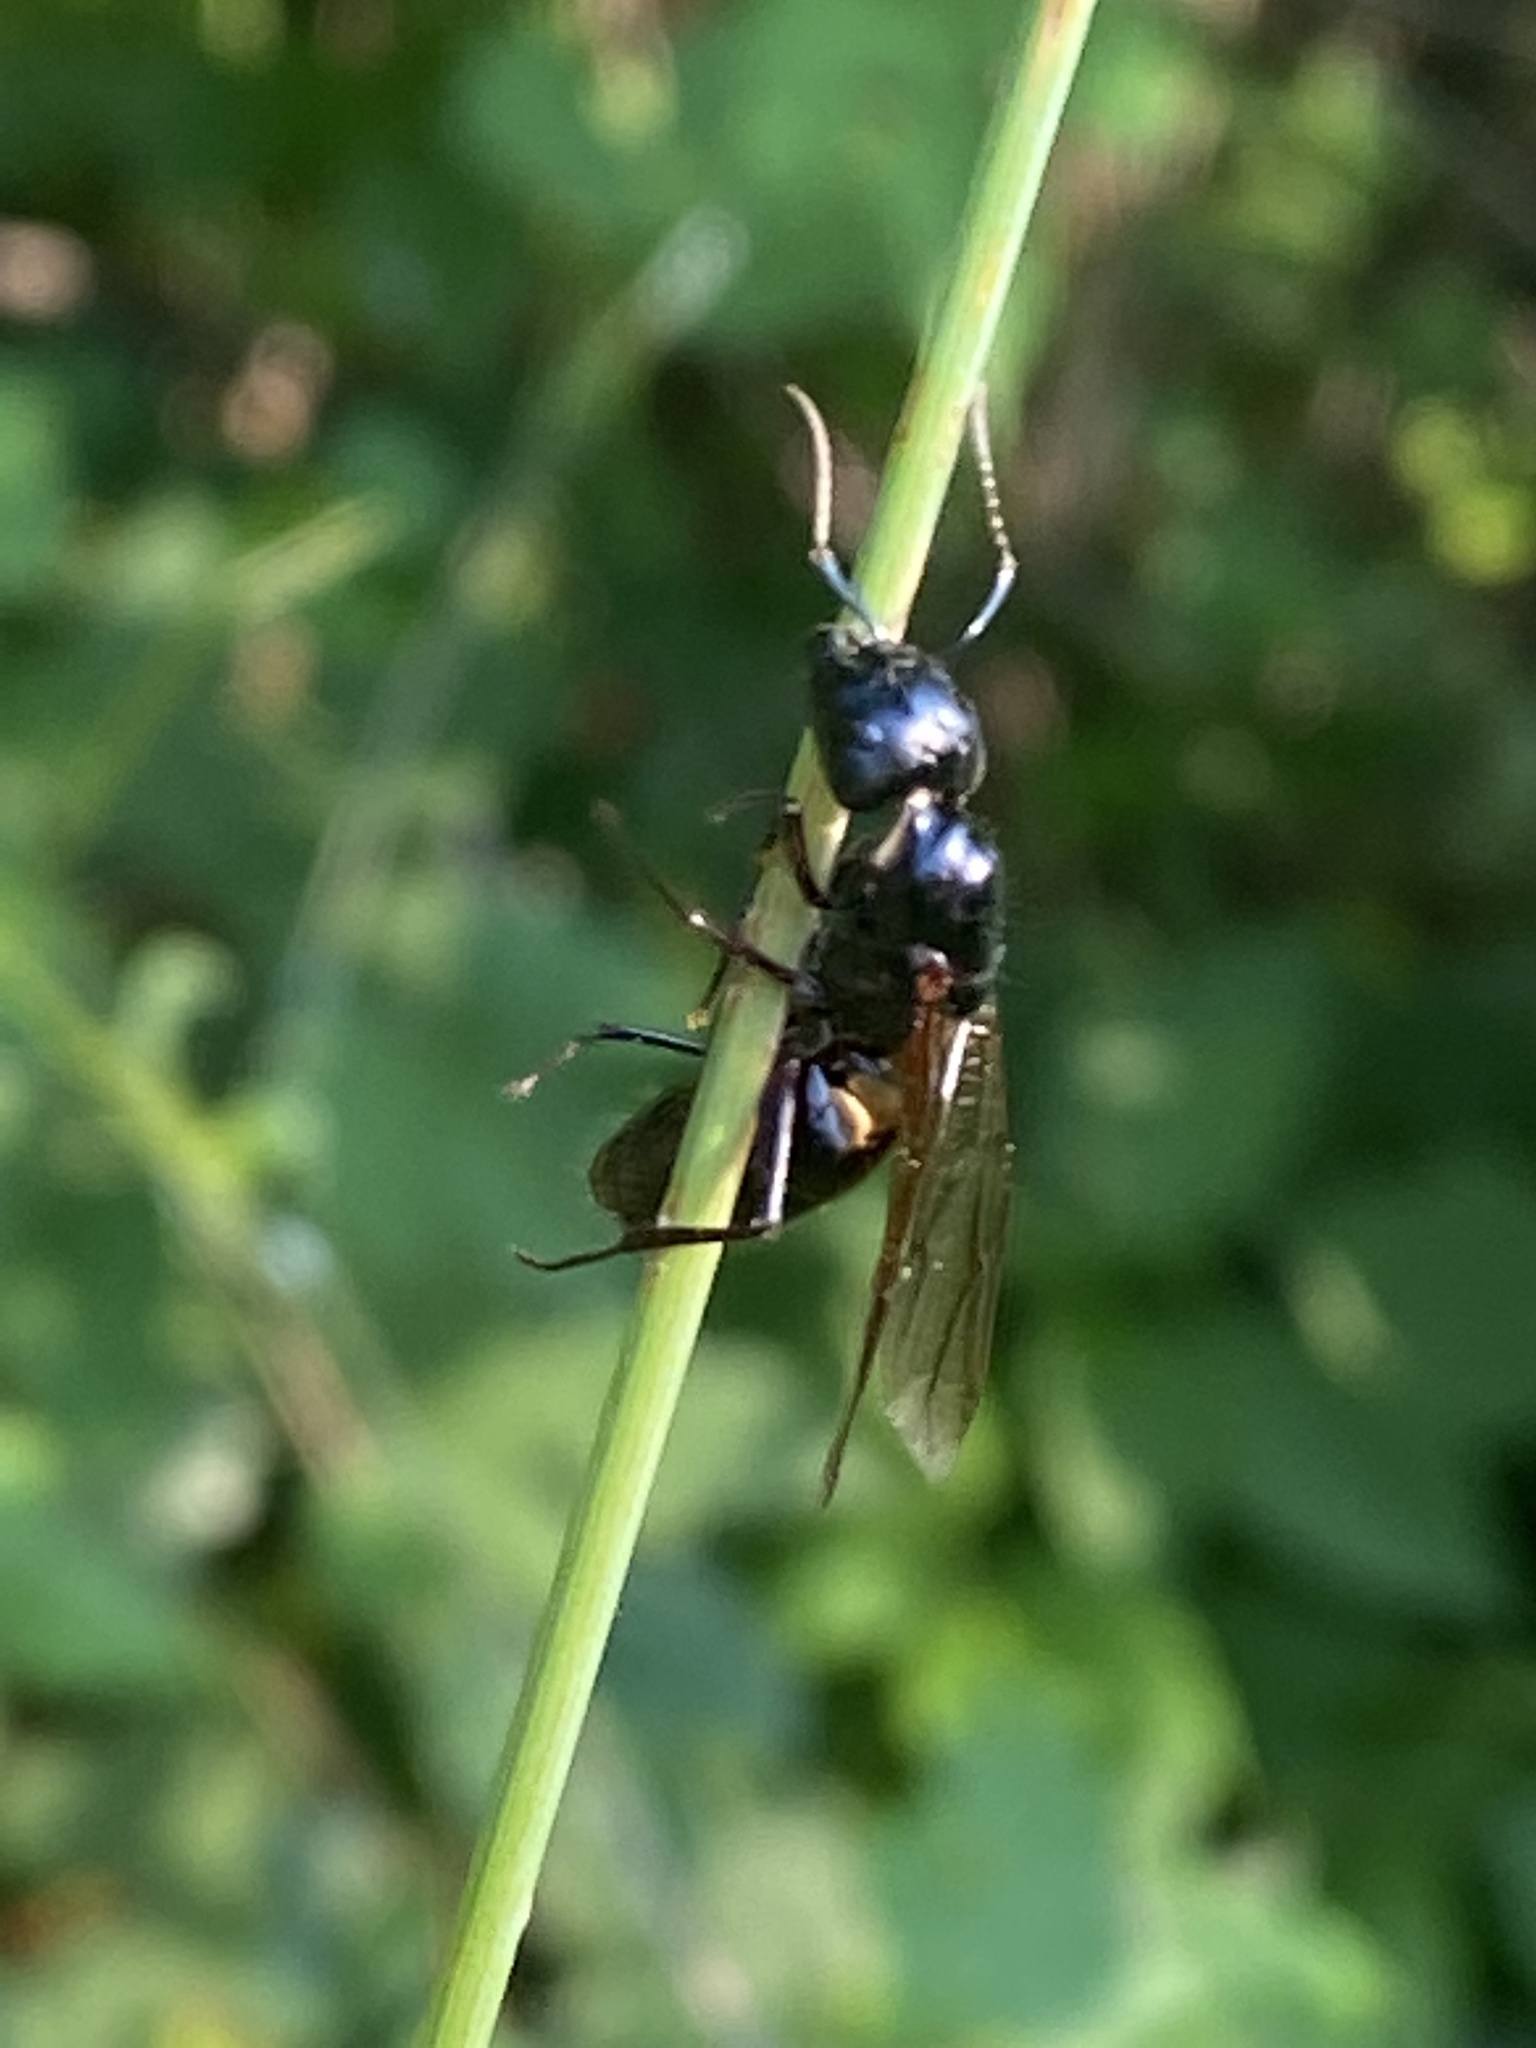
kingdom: Animalia
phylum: Arthropoda
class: Insecta
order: Hymenoptera
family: Formicidae
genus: Camponotus
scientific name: Camponotus pennsylvanicus
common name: Black carpenter ant
